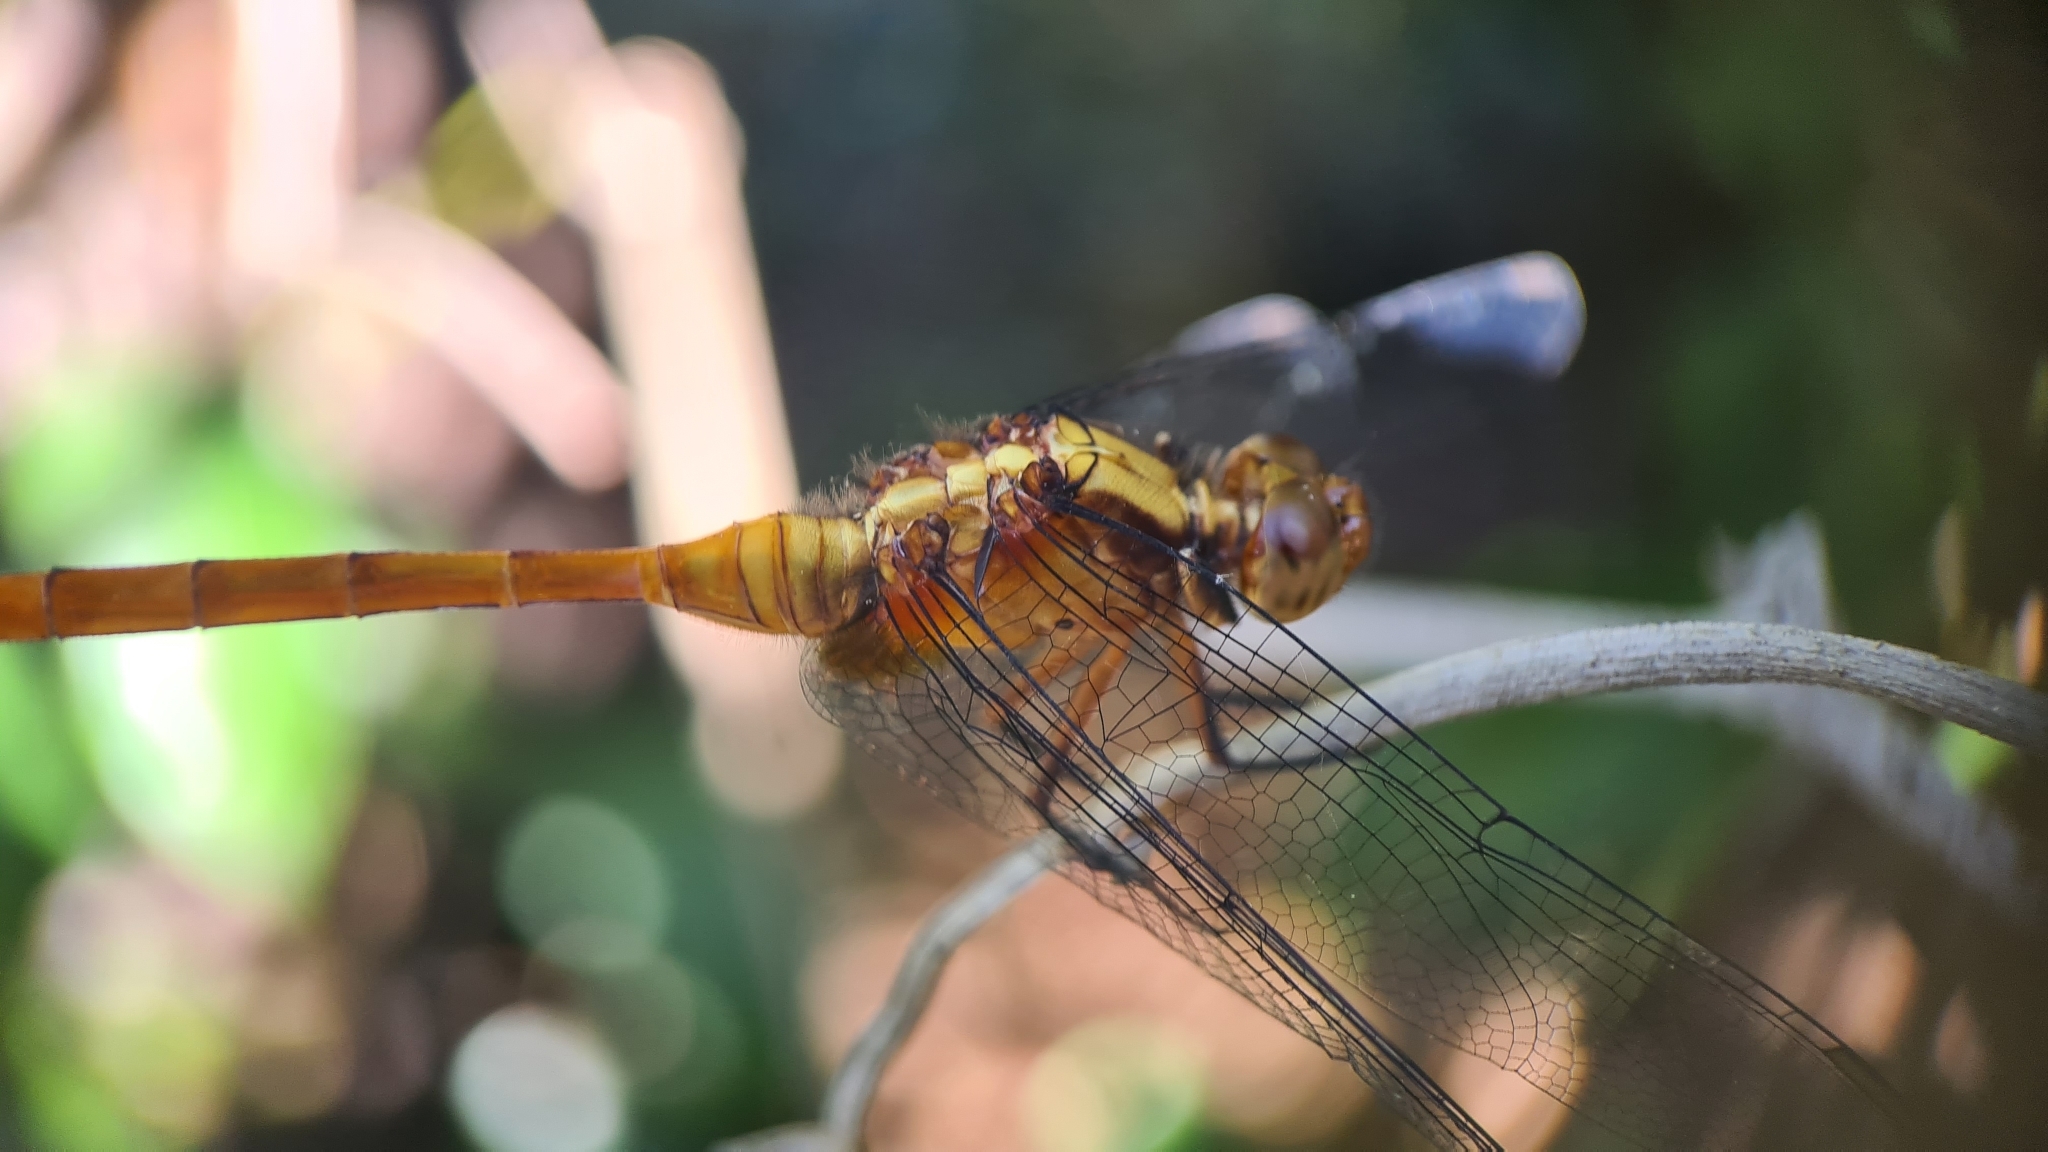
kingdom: Animalia
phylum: Arthropoda
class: Insecta
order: Odonata
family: Libellulidae
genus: Orthetrum
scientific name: Orthetrum villosovittatum
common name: Firery skimmer
